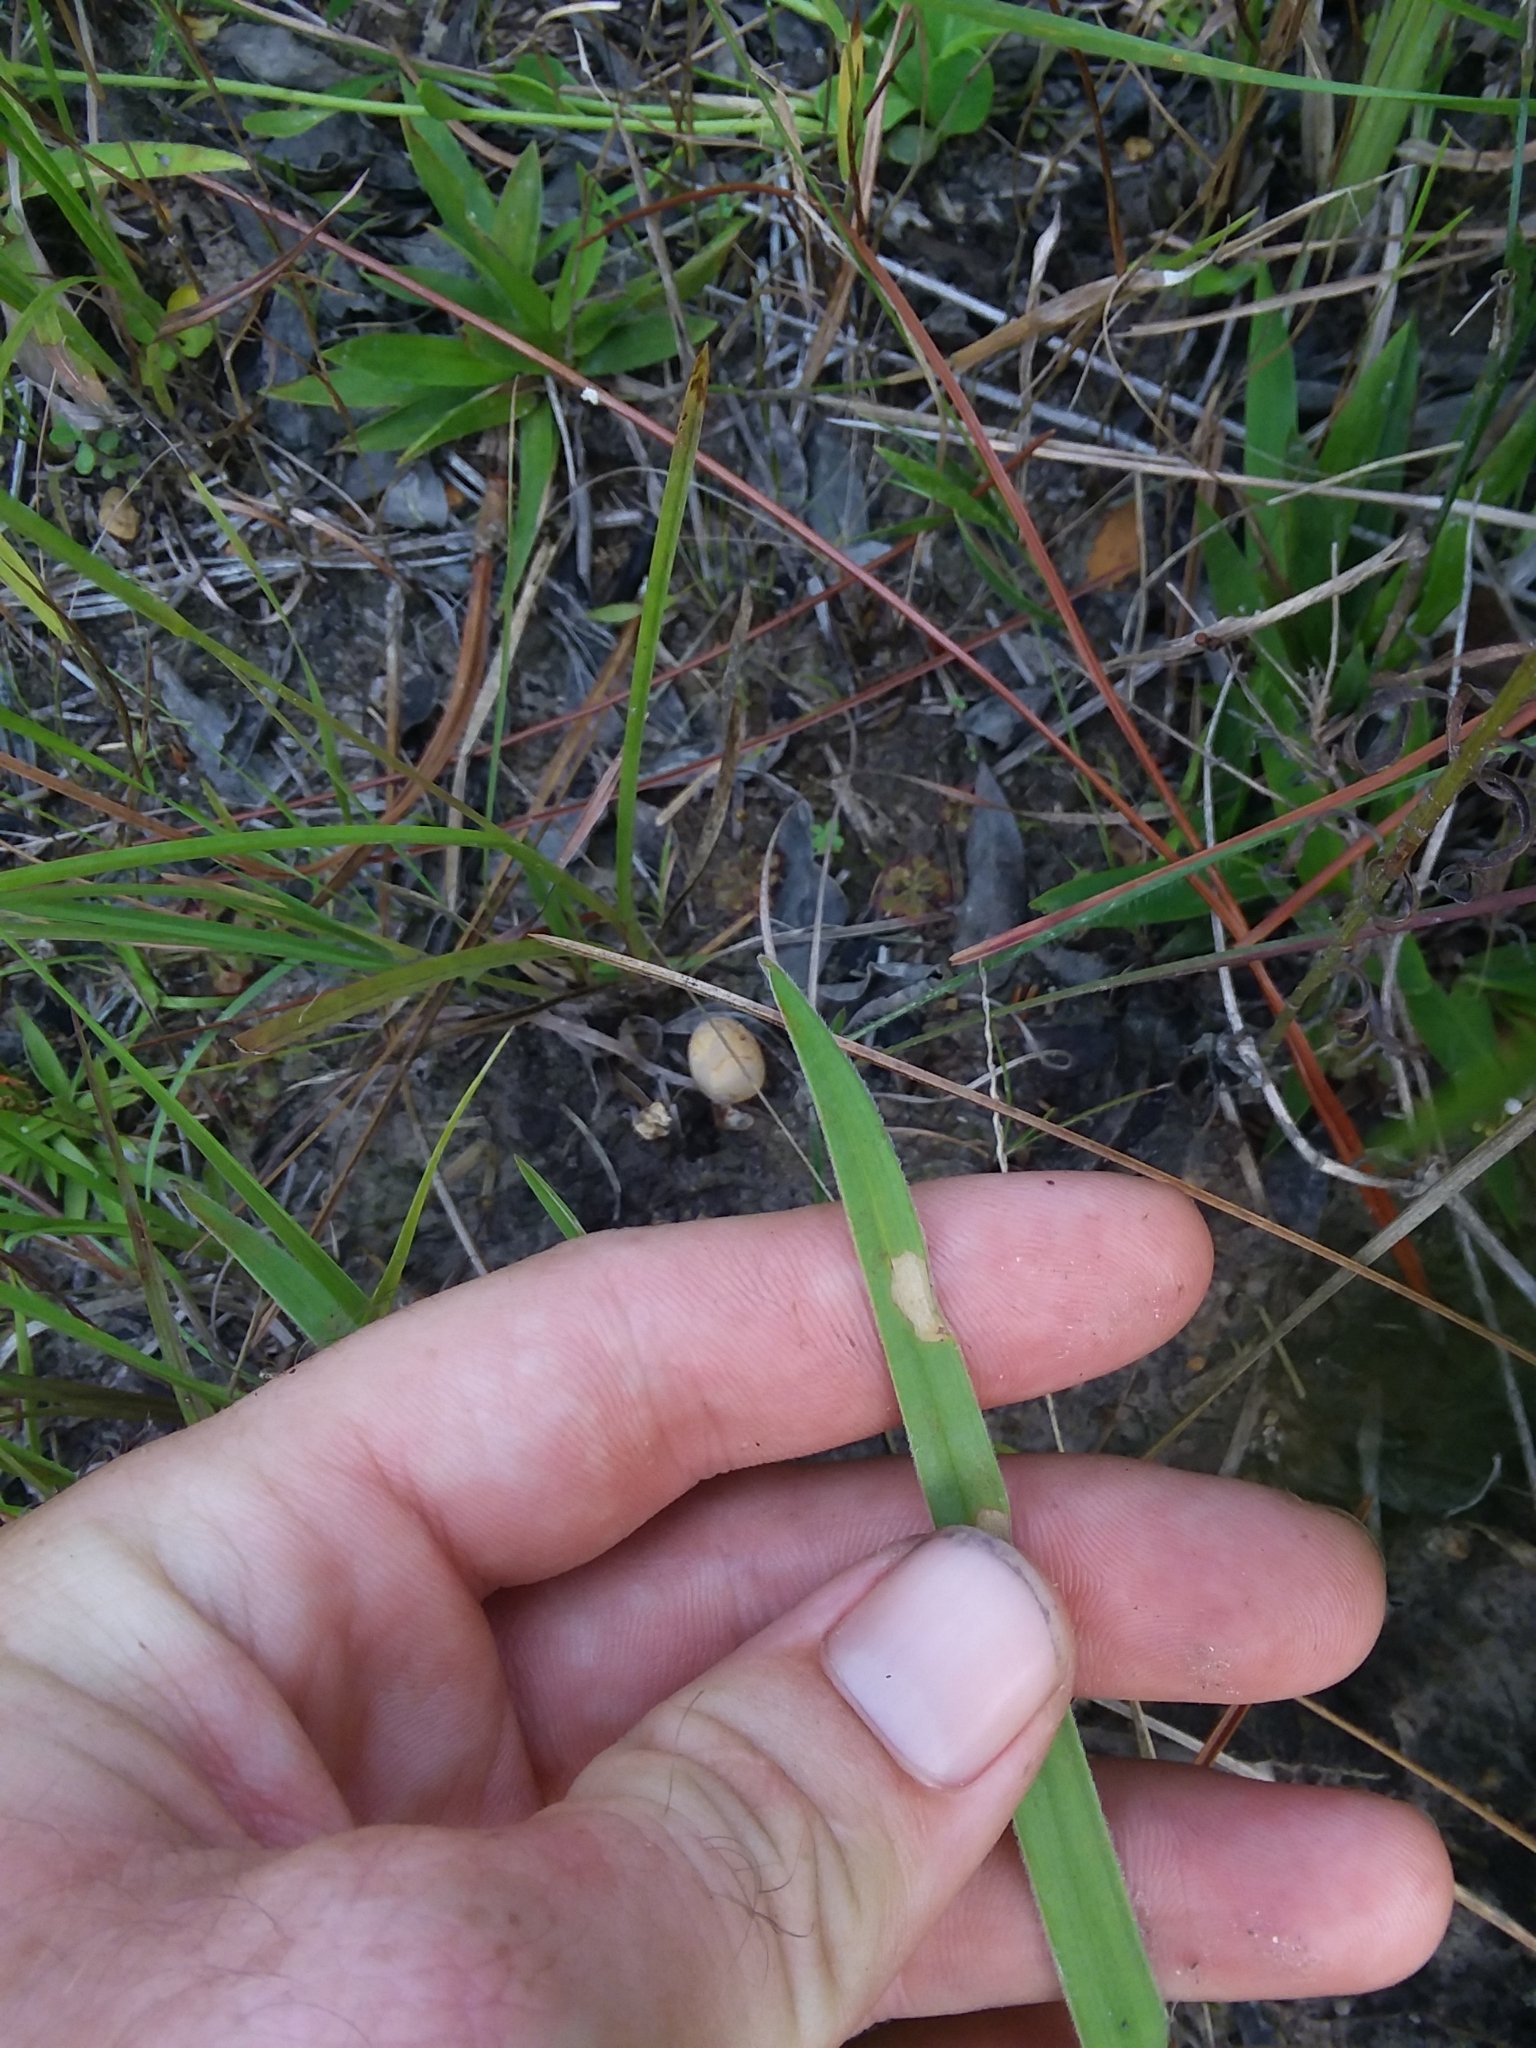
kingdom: Plantae
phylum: Tracheophyta
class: Liliopsida
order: Poales
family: Cyperaceae
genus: Rhynchospora
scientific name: Rhynchospora ciliaris
